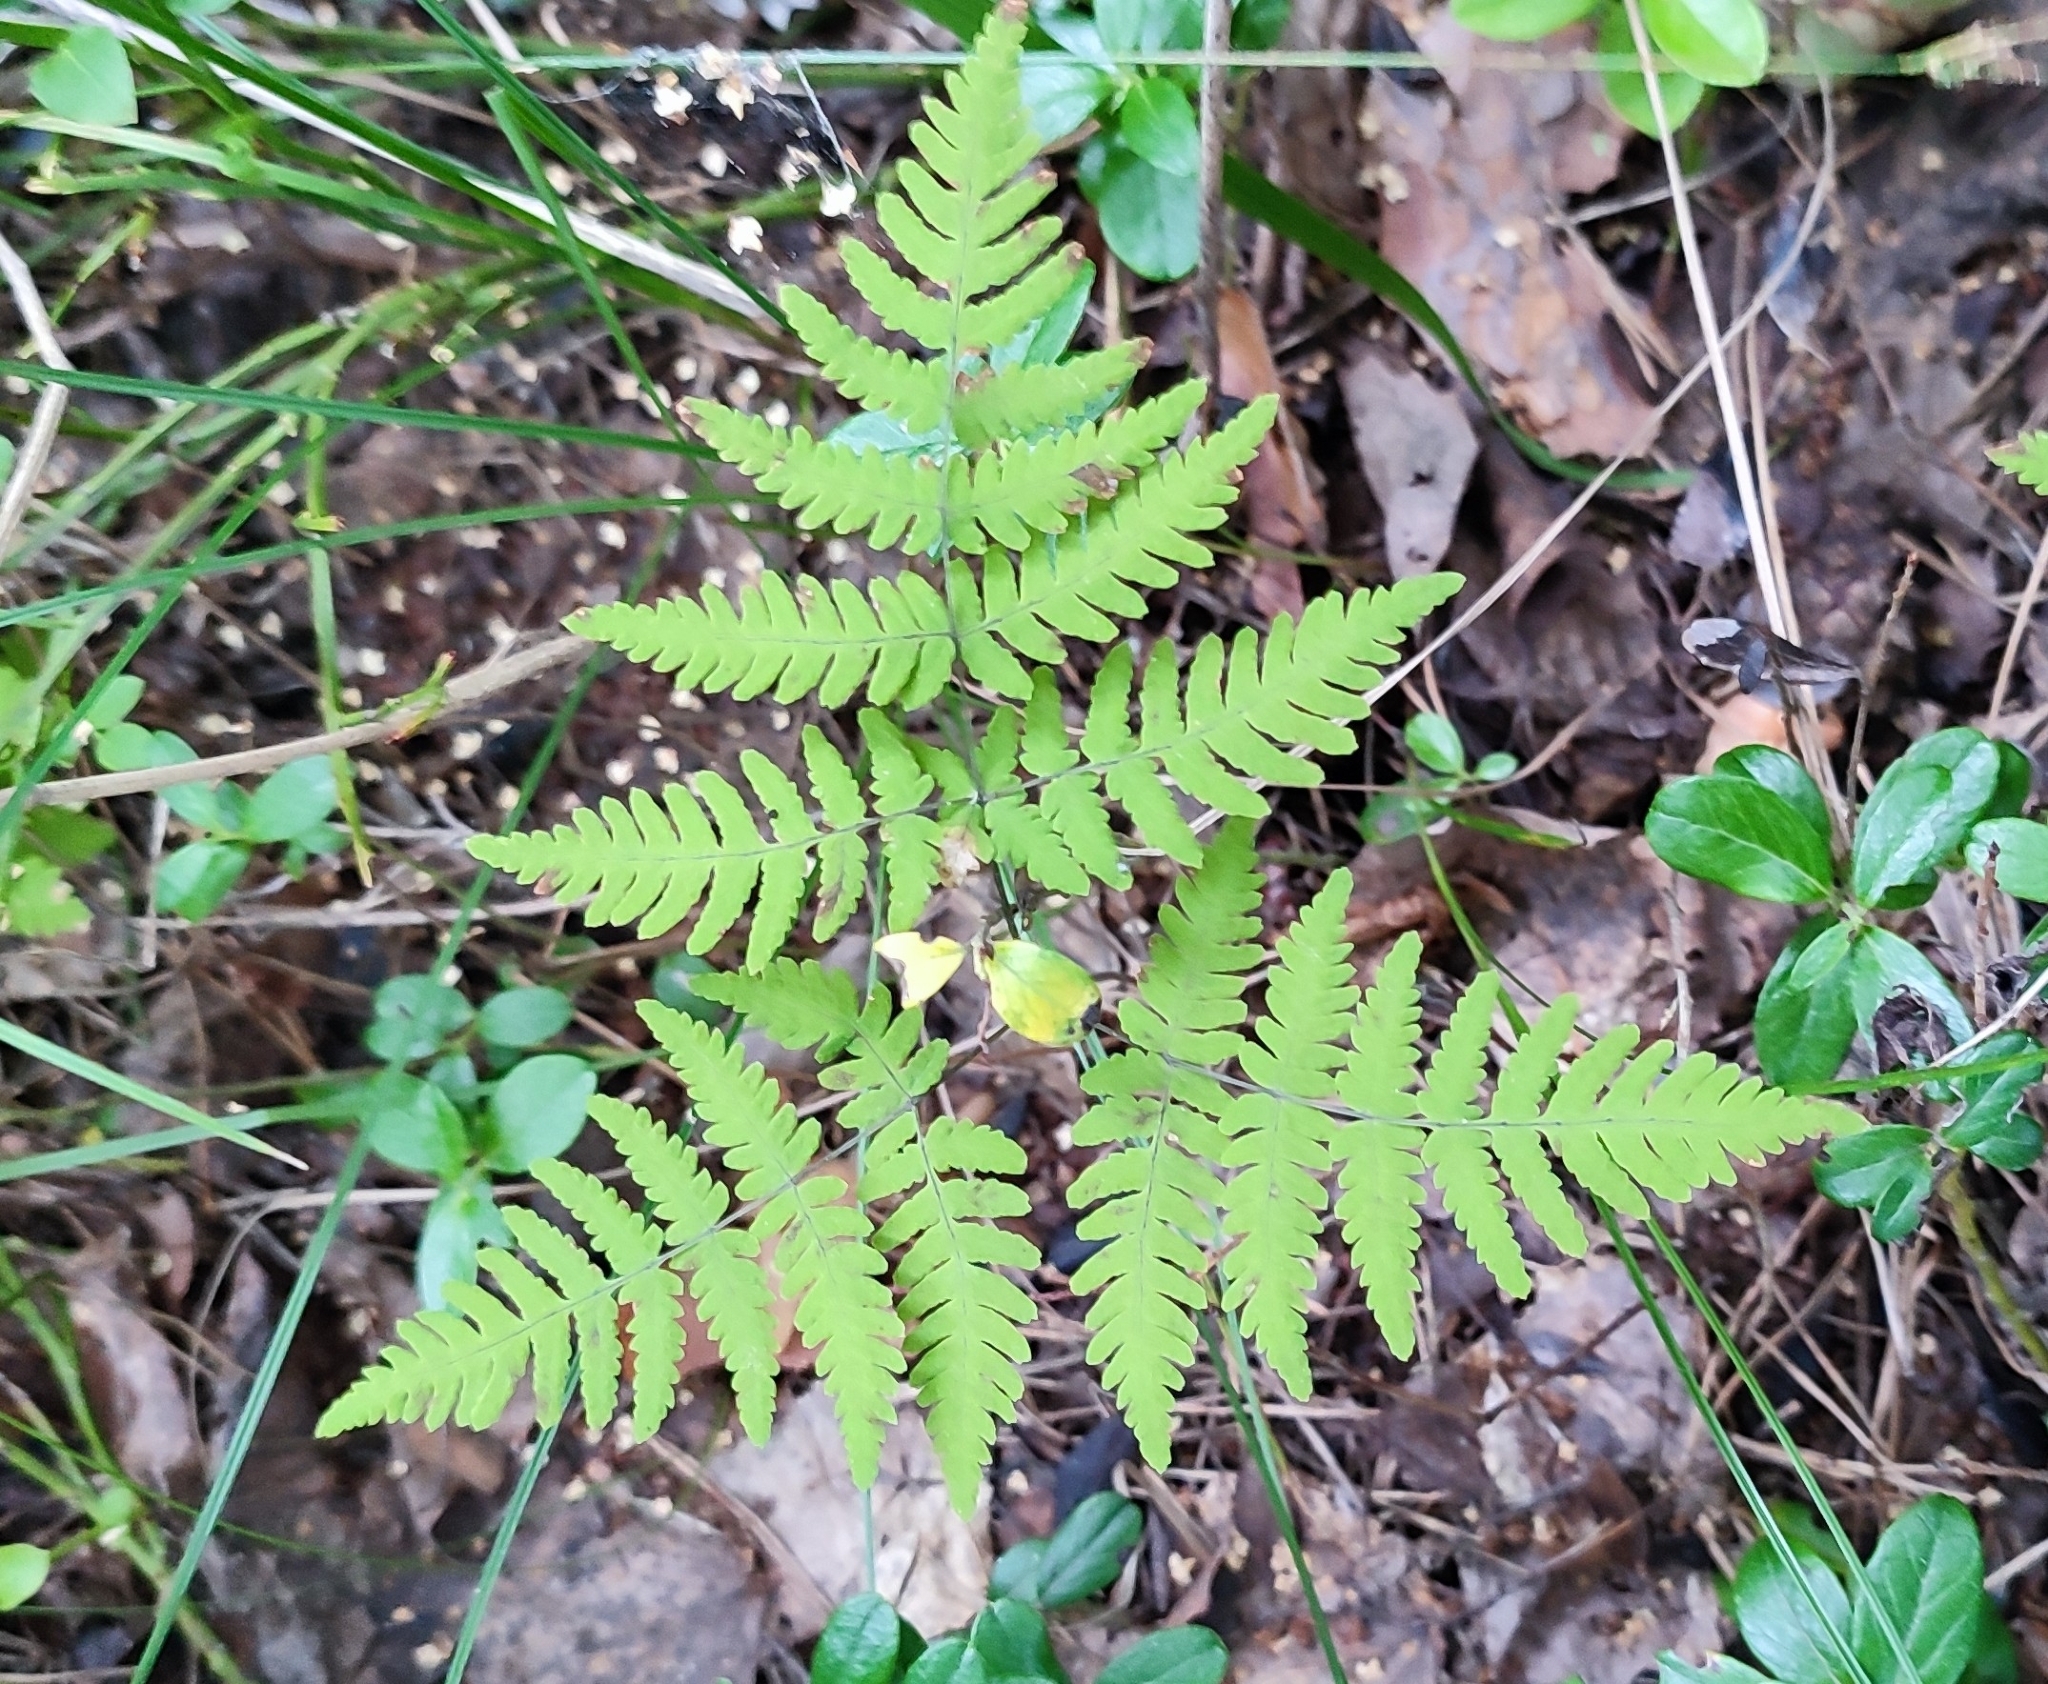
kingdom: Plantae
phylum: Tracheophyta
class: Polypodiopsida
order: Polypodiales
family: Cystopteridaceae
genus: Gymnocarpium
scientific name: Gymnocarpium dryopteris
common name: Oak fern
